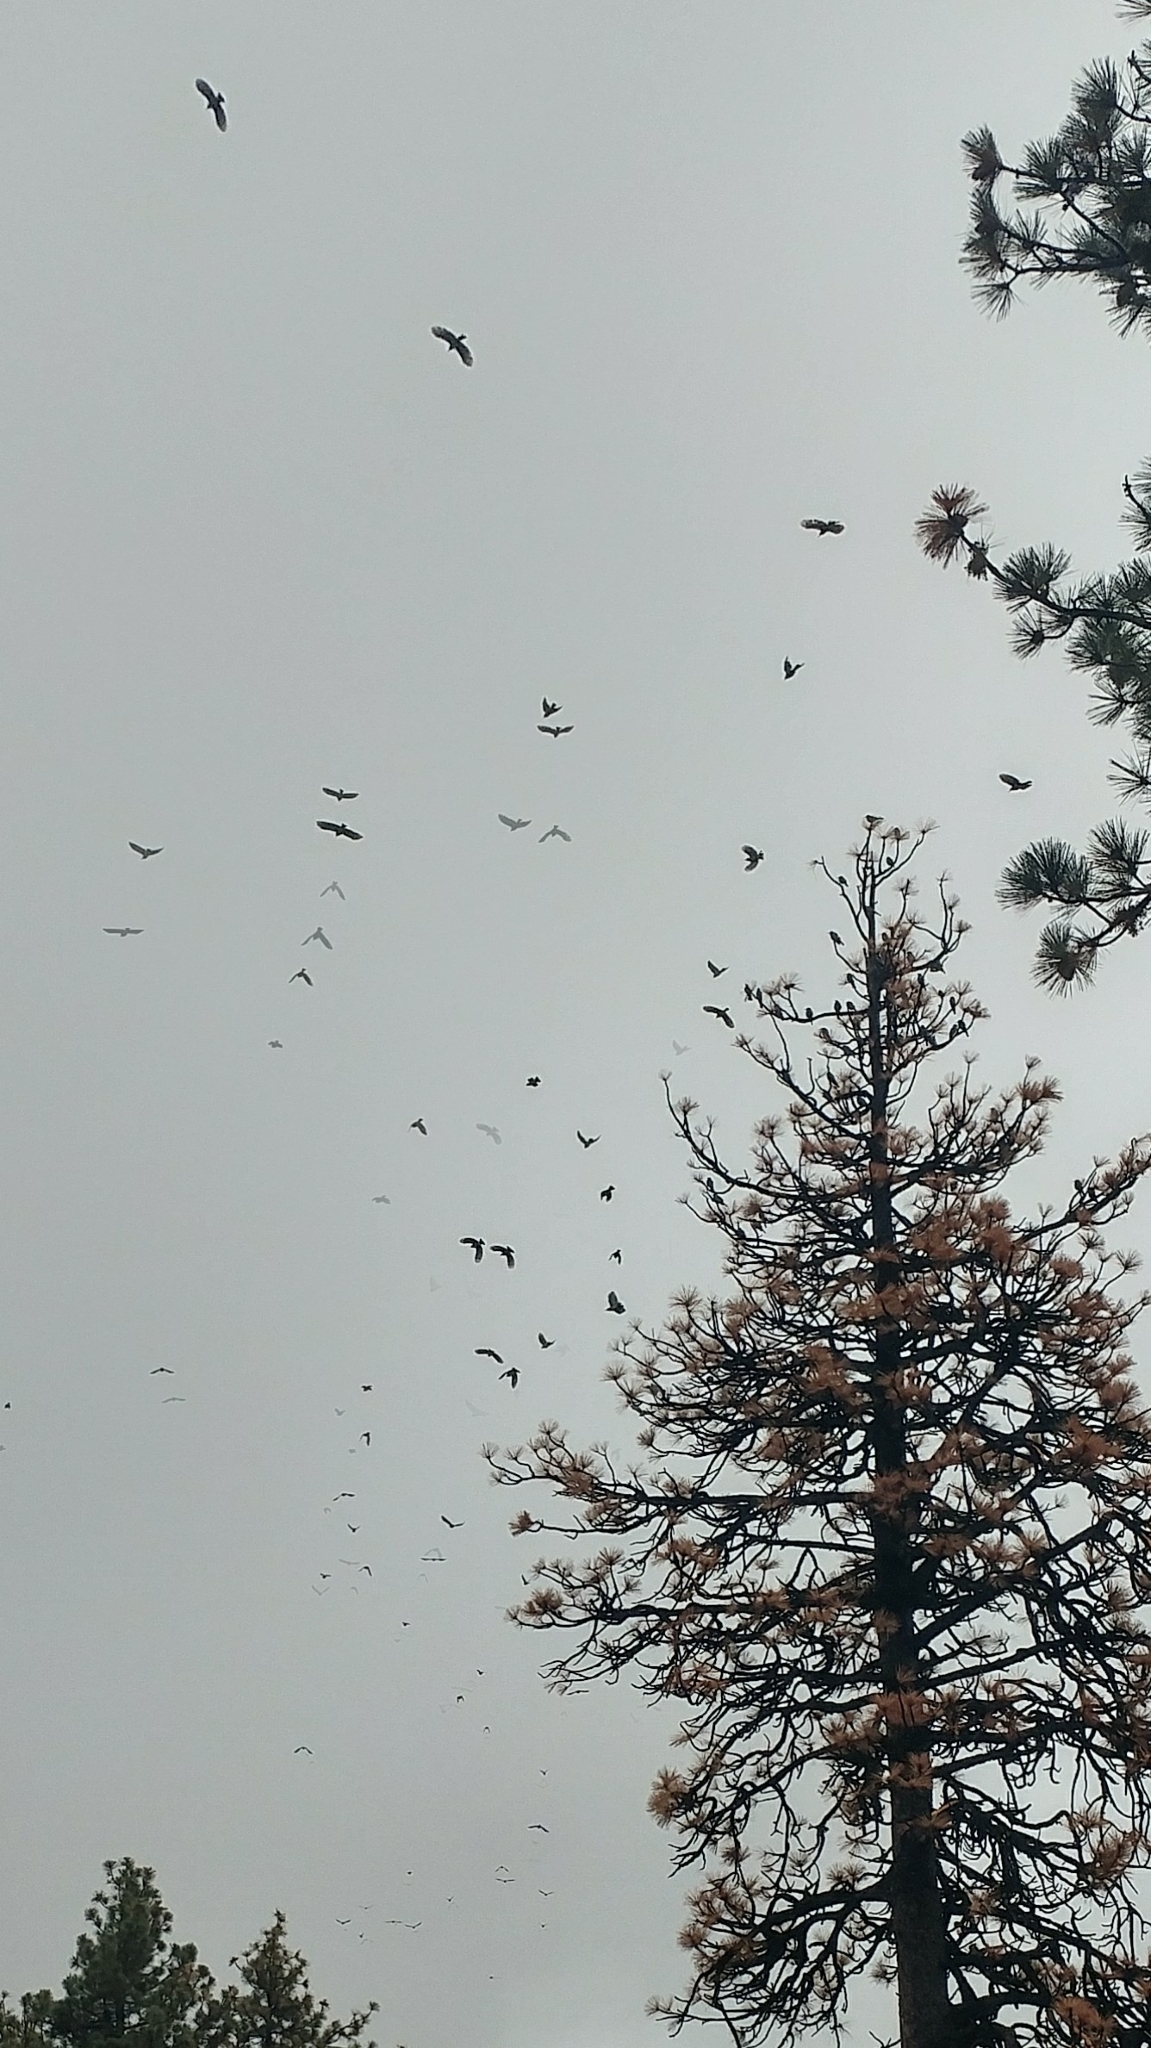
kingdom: Animalia
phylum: Chordata
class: Aves
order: Passeriformes
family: Corvidae
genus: Gymnorhinus
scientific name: Gymnorhinus cyanocephalus
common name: Pinyon jay
